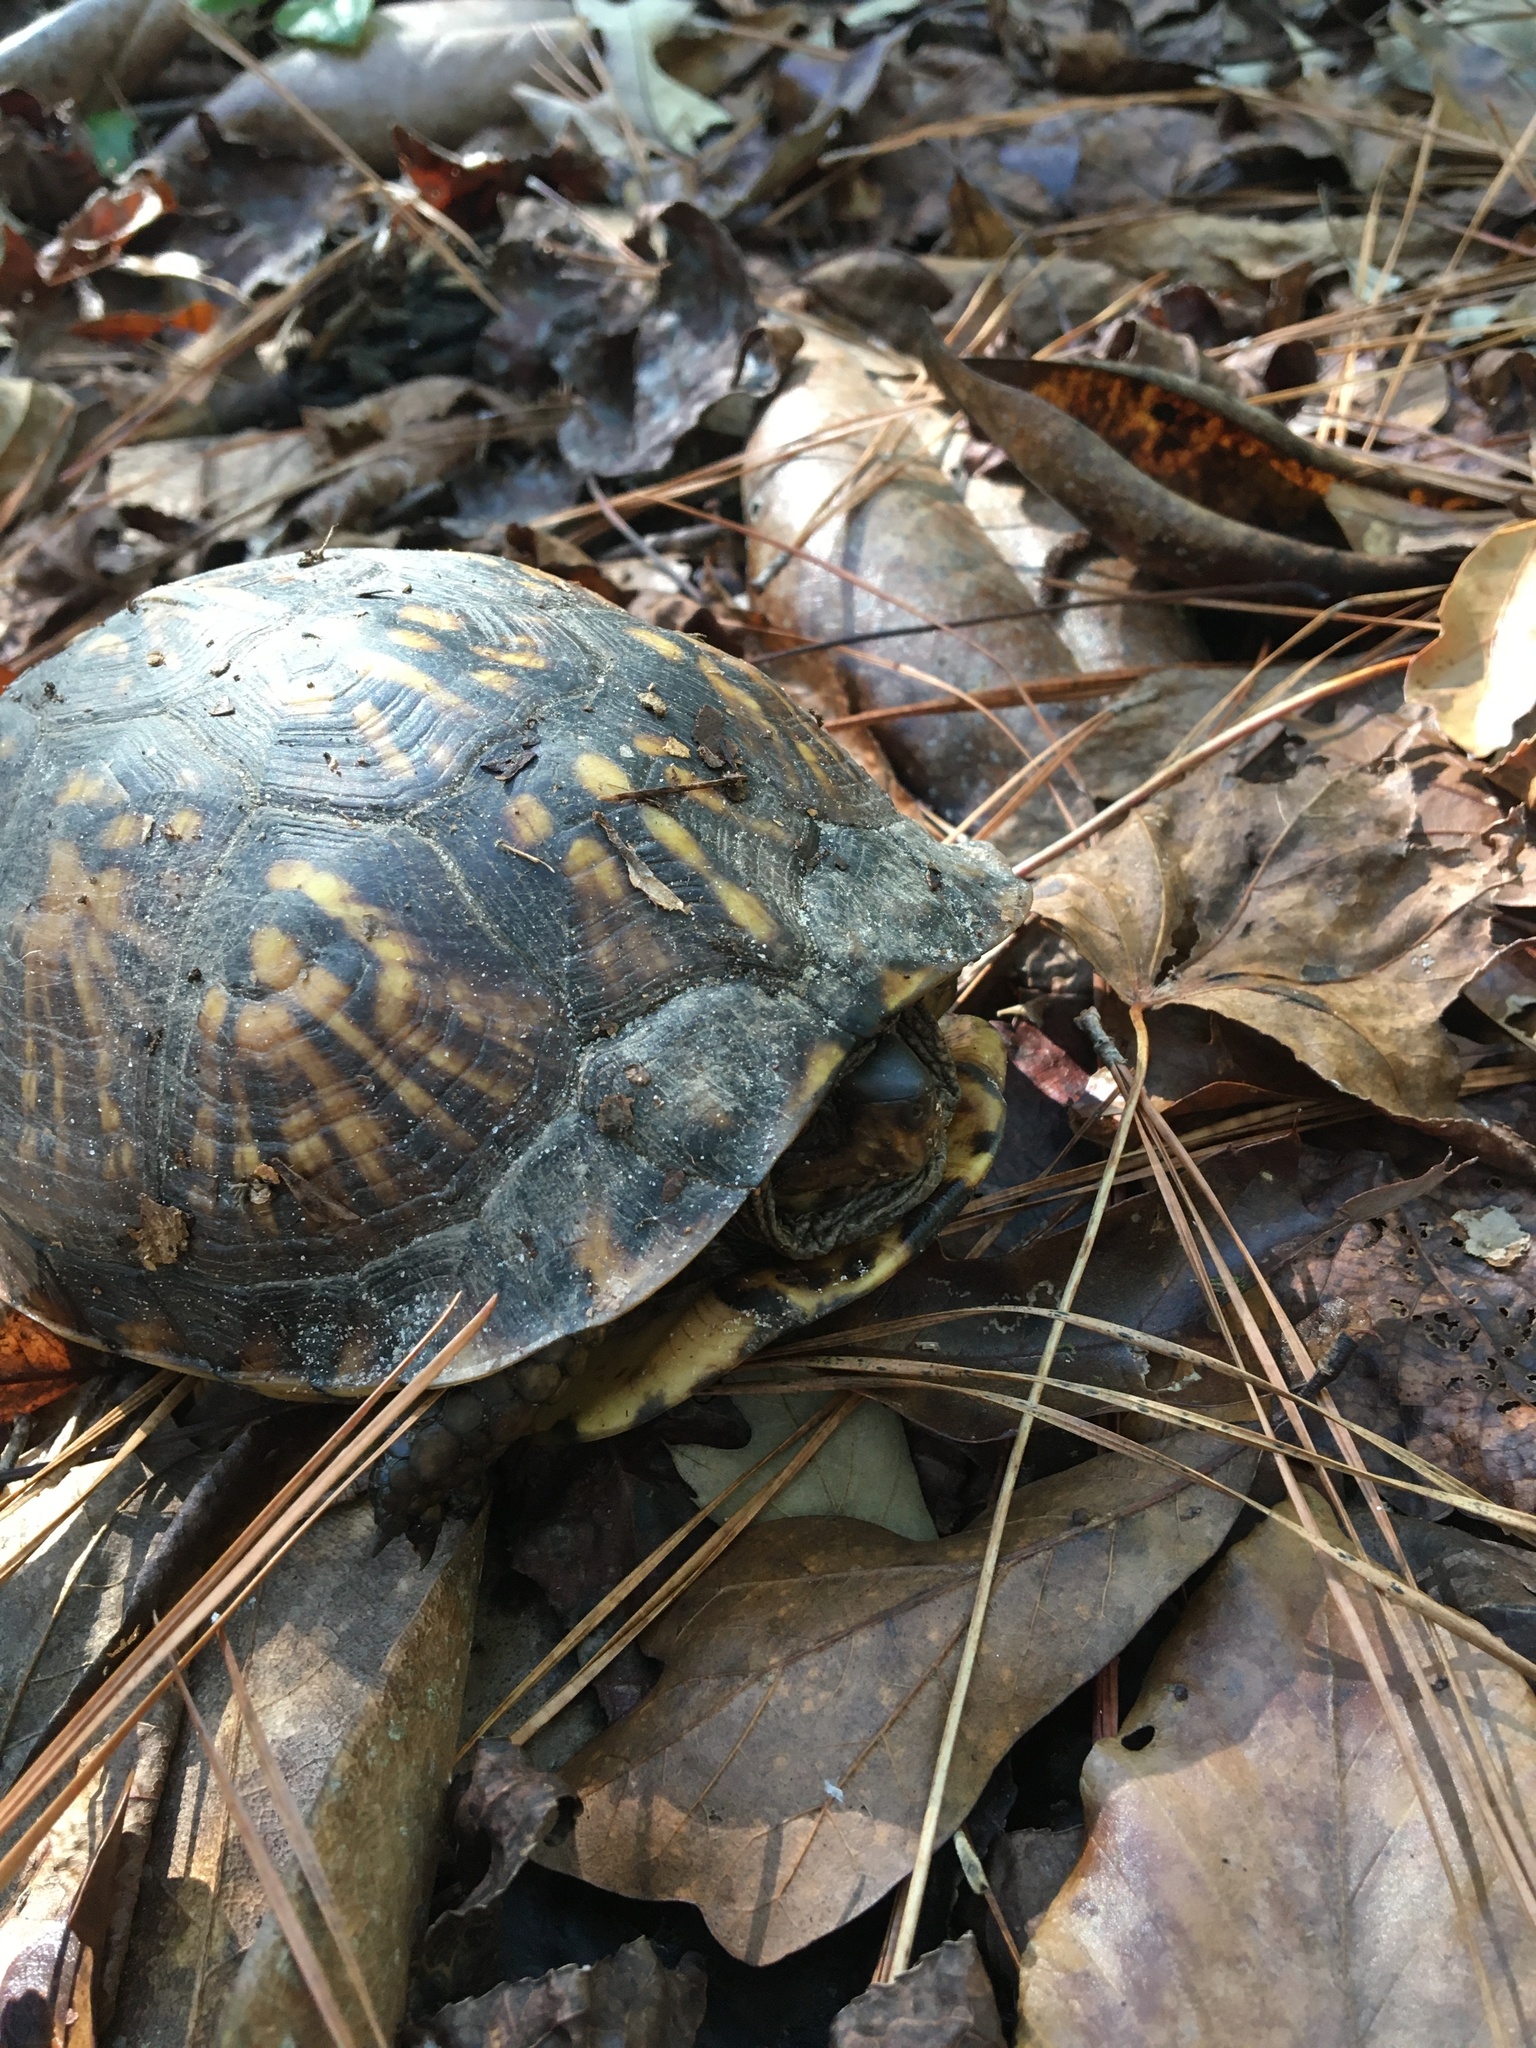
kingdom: Animalia
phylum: Chordata
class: Testudines
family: Emydidae
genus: Terrapene
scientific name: Terrapene carolina
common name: Common box turtle
